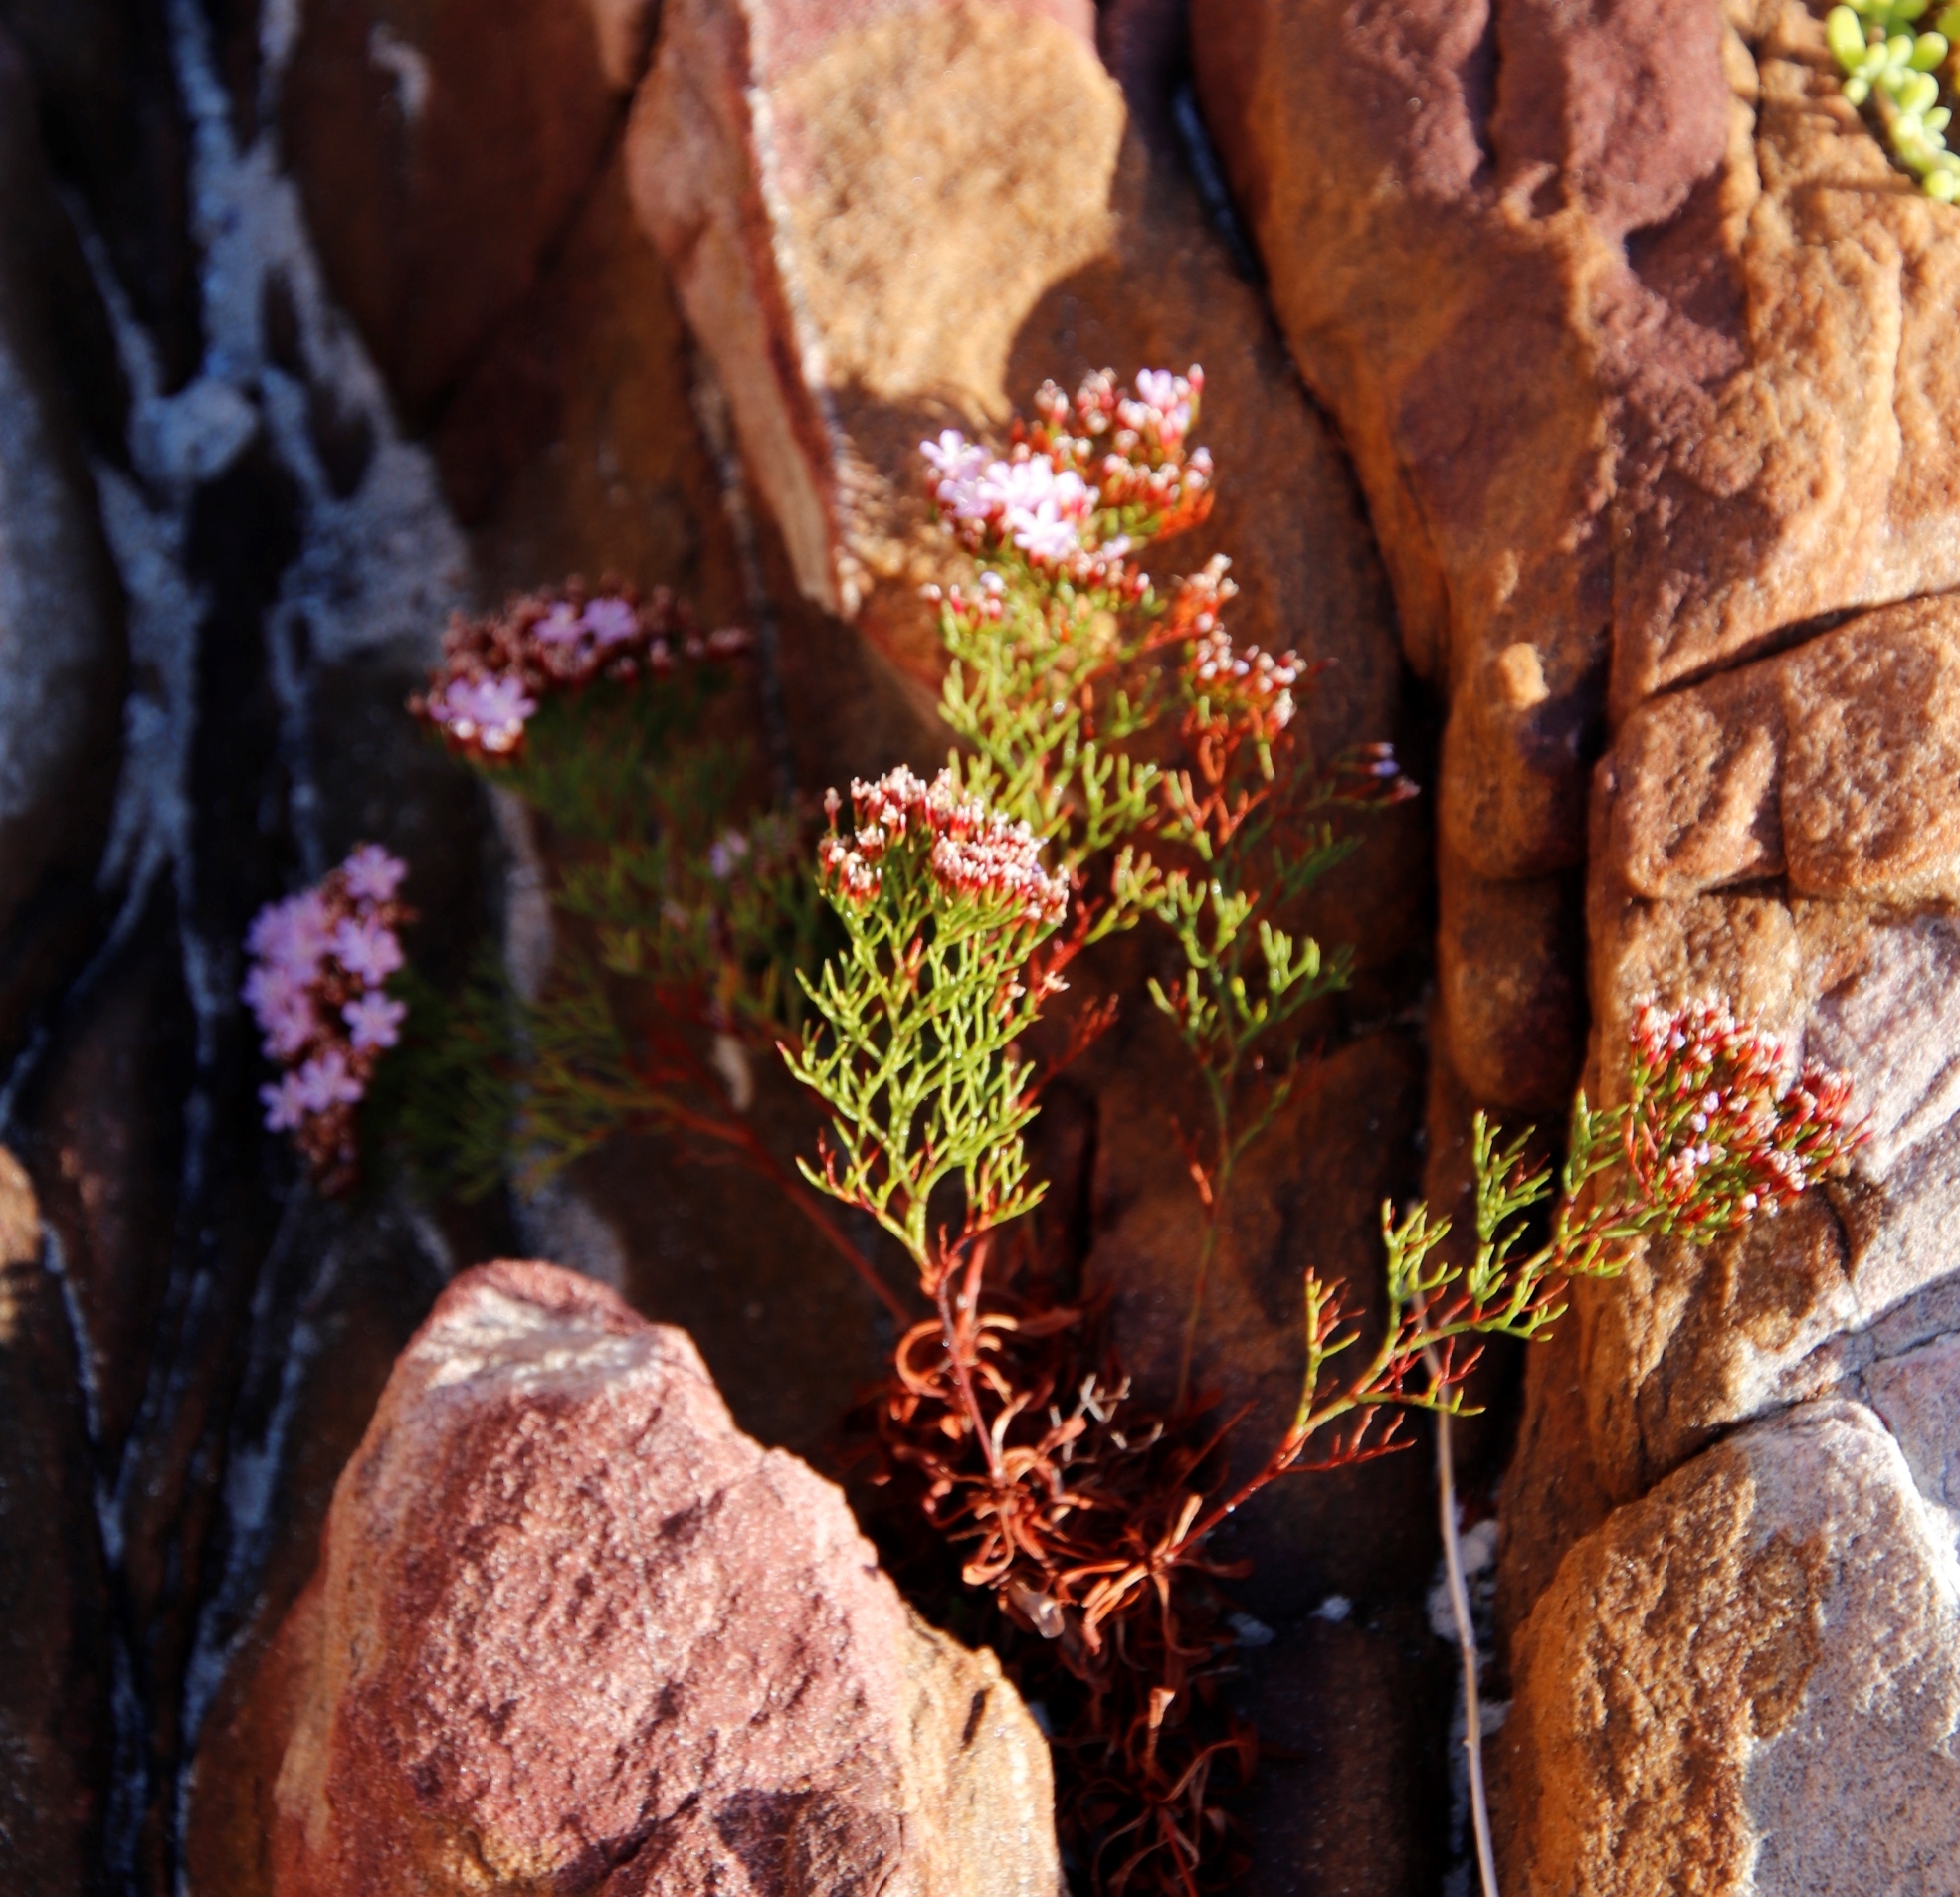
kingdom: Plantae
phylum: Tracheophyta
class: Magnoliopsida
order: Caryophyllales
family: Plumbaginaceae
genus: Limonium
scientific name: Limonium scabrum
